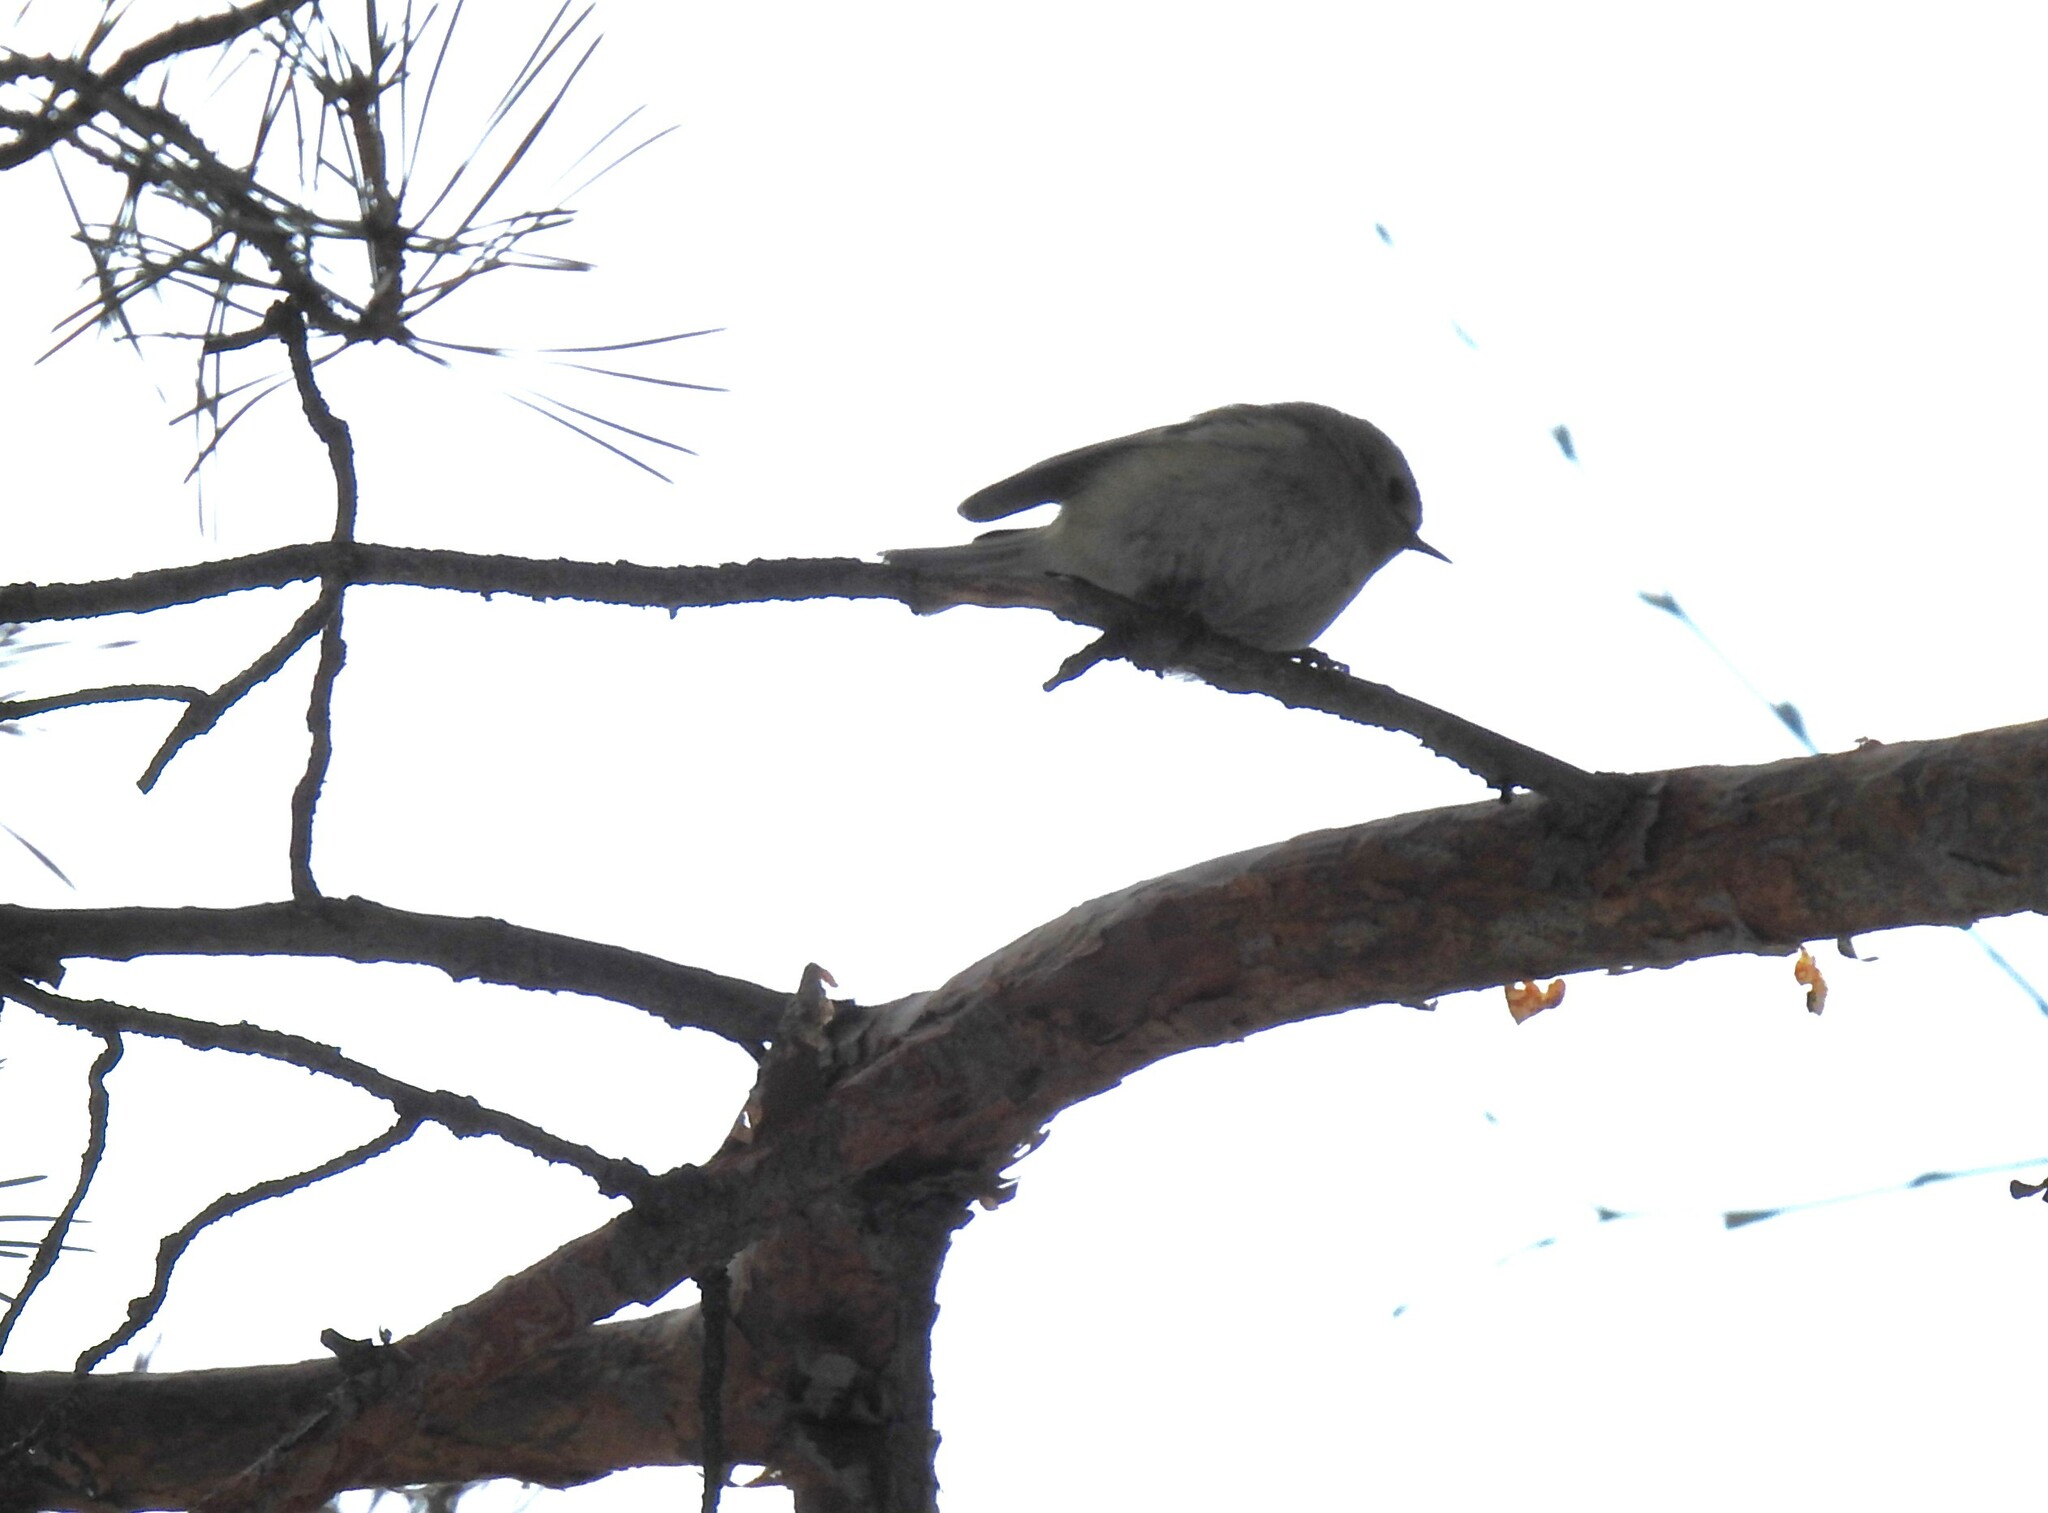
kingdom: Animalia
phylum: Chordata
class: Aves
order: Passeriformes
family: Regulidae
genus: Regulus
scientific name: Regulus regulus
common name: Goldcrest
